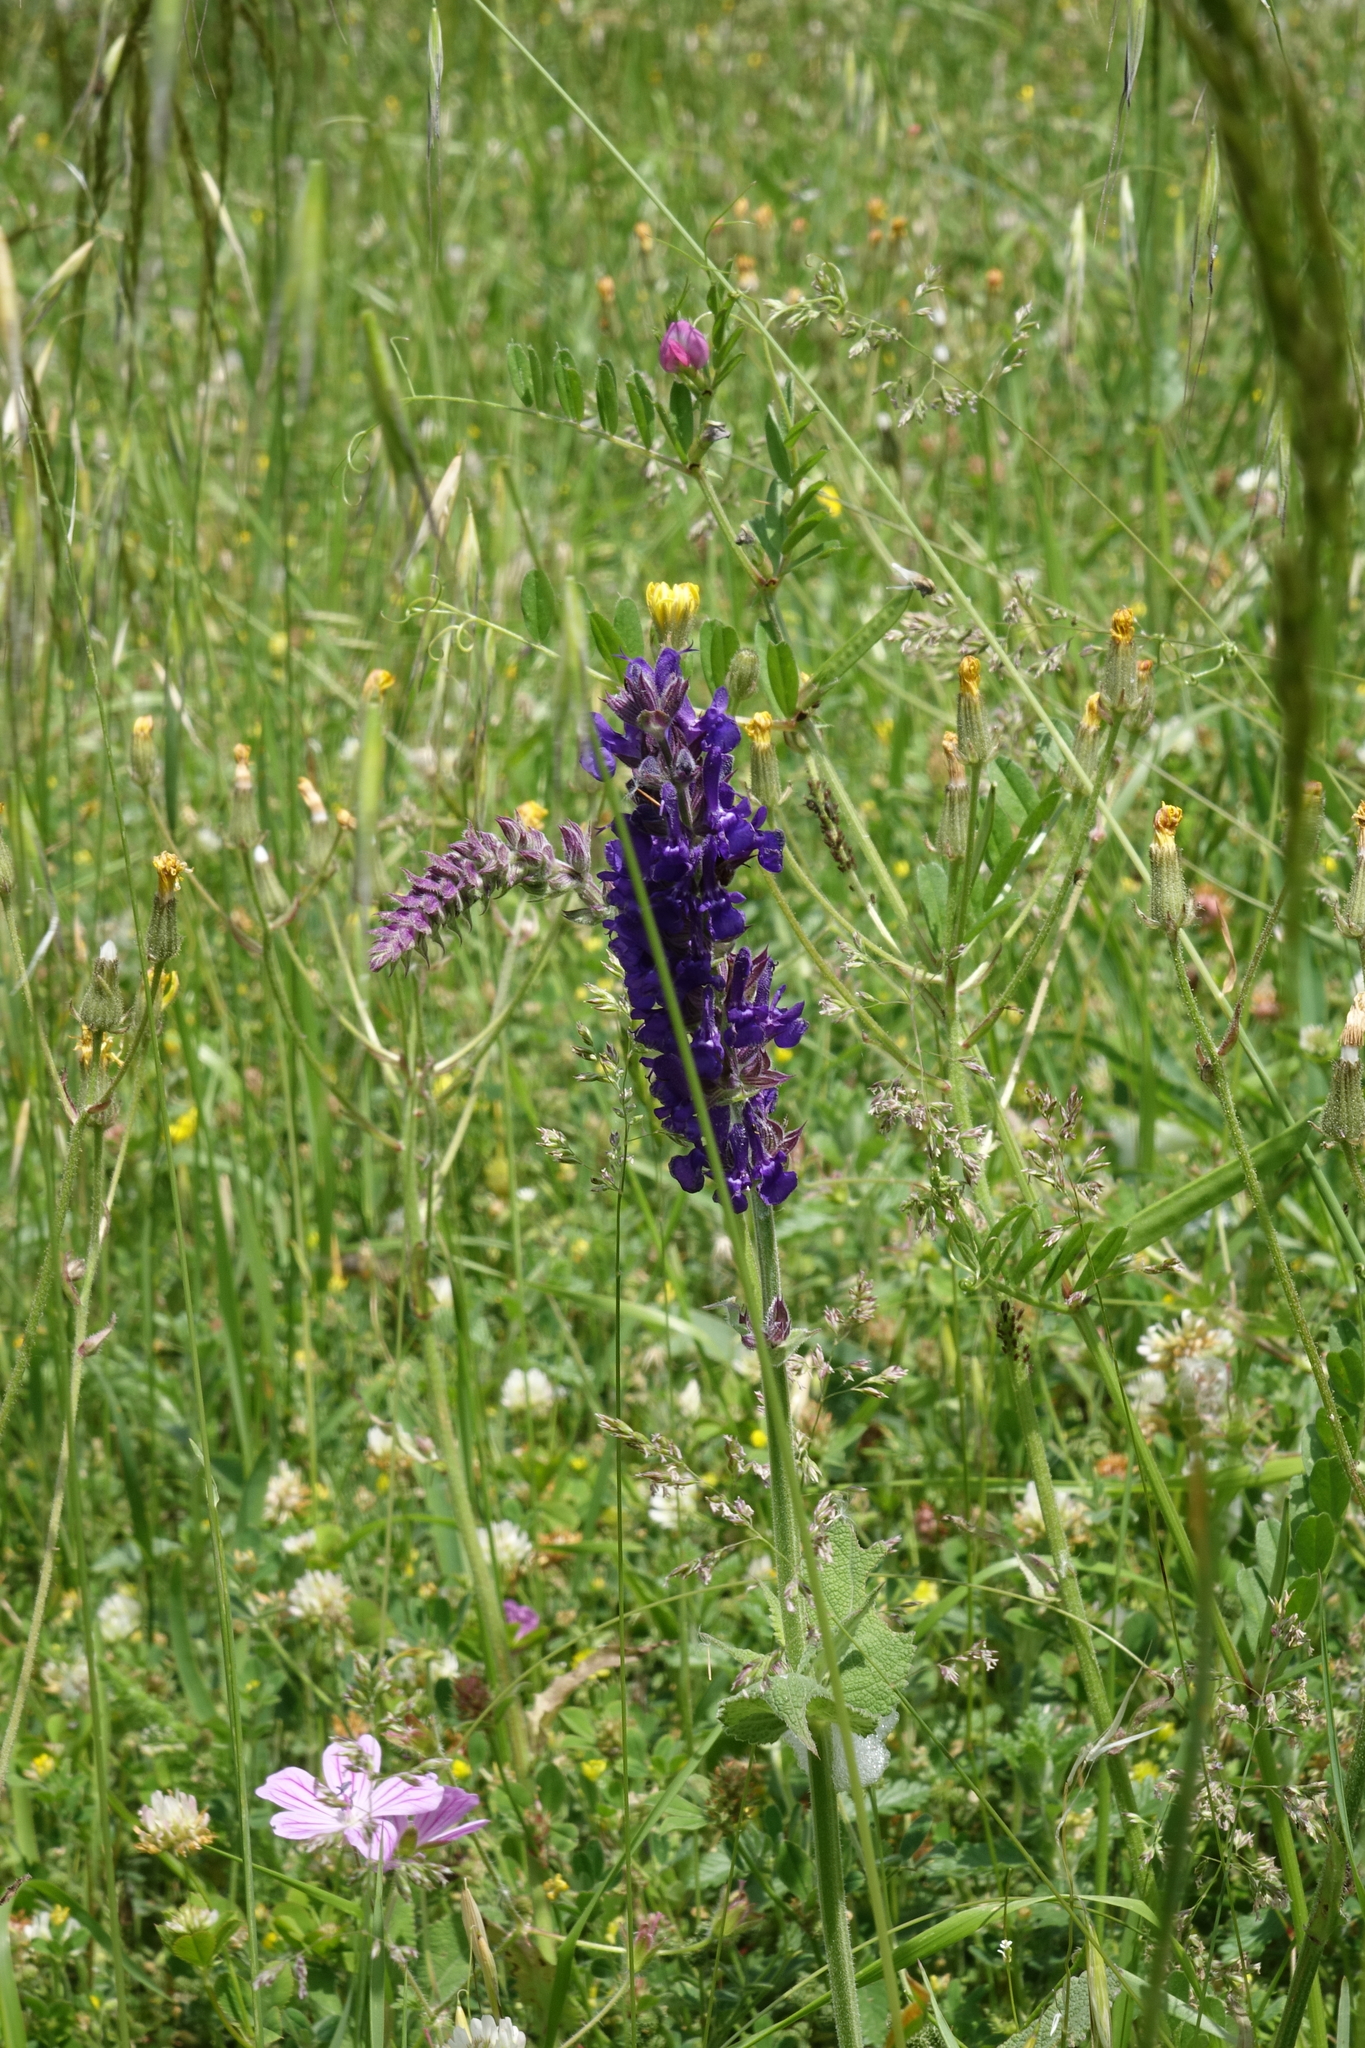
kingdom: Plantae
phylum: Tracheophyta
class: Magnoliopsida
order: Lamiales
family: Lamiaceae
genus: Salvia
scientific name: Salvia nemorosa
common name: Balkan clary
